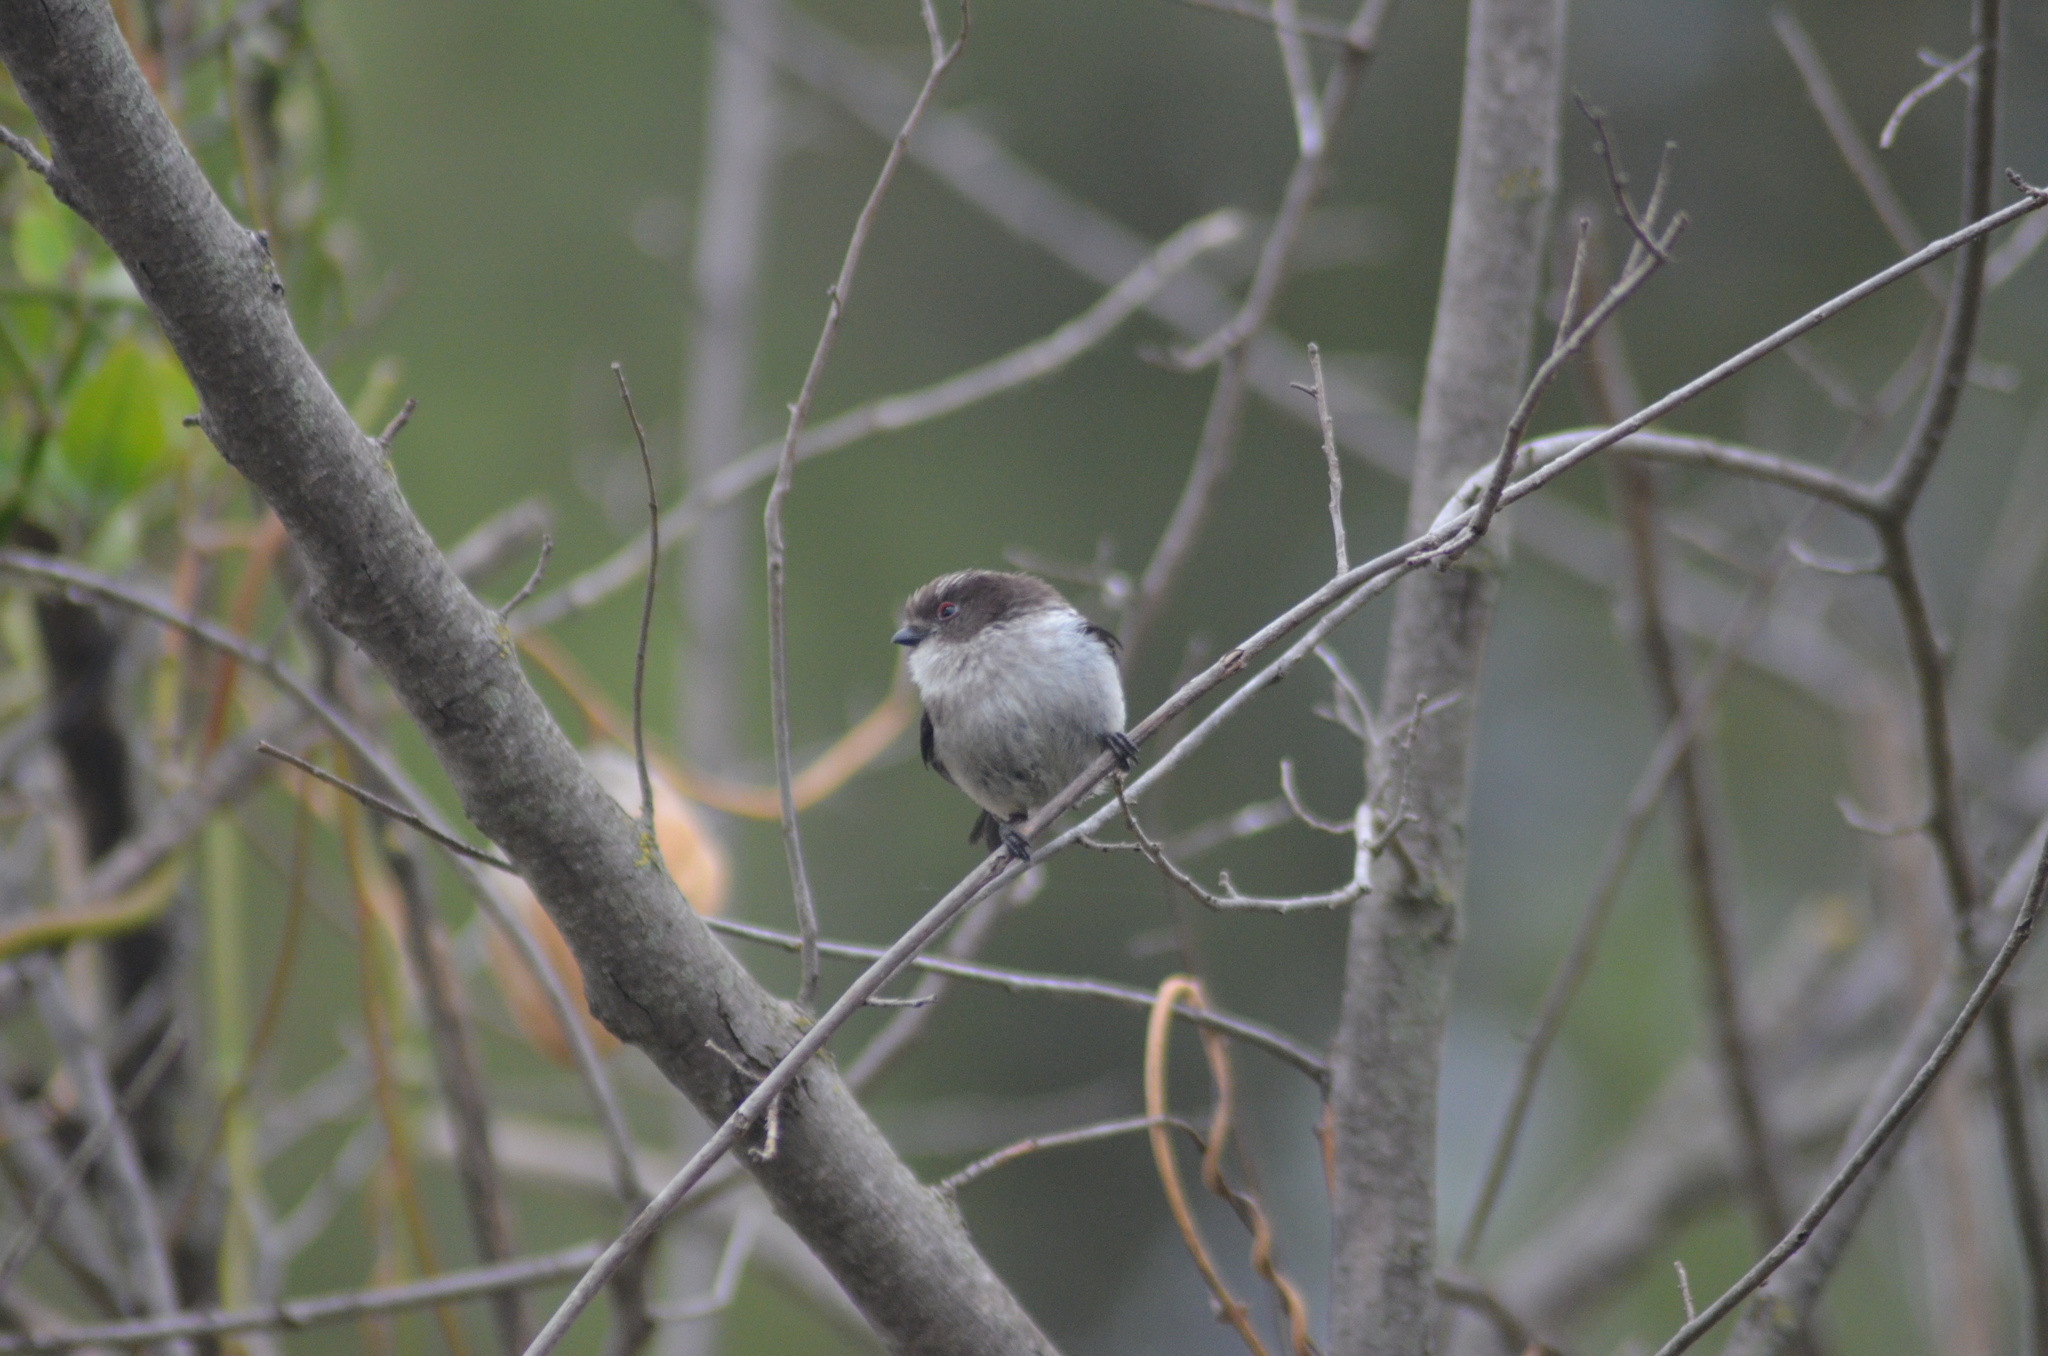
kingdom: Animalia
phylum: Chordata
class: Aves
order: Passeriformes
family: Aegithalidae
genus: Aegithalos
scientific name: Aegithalos caudatus
